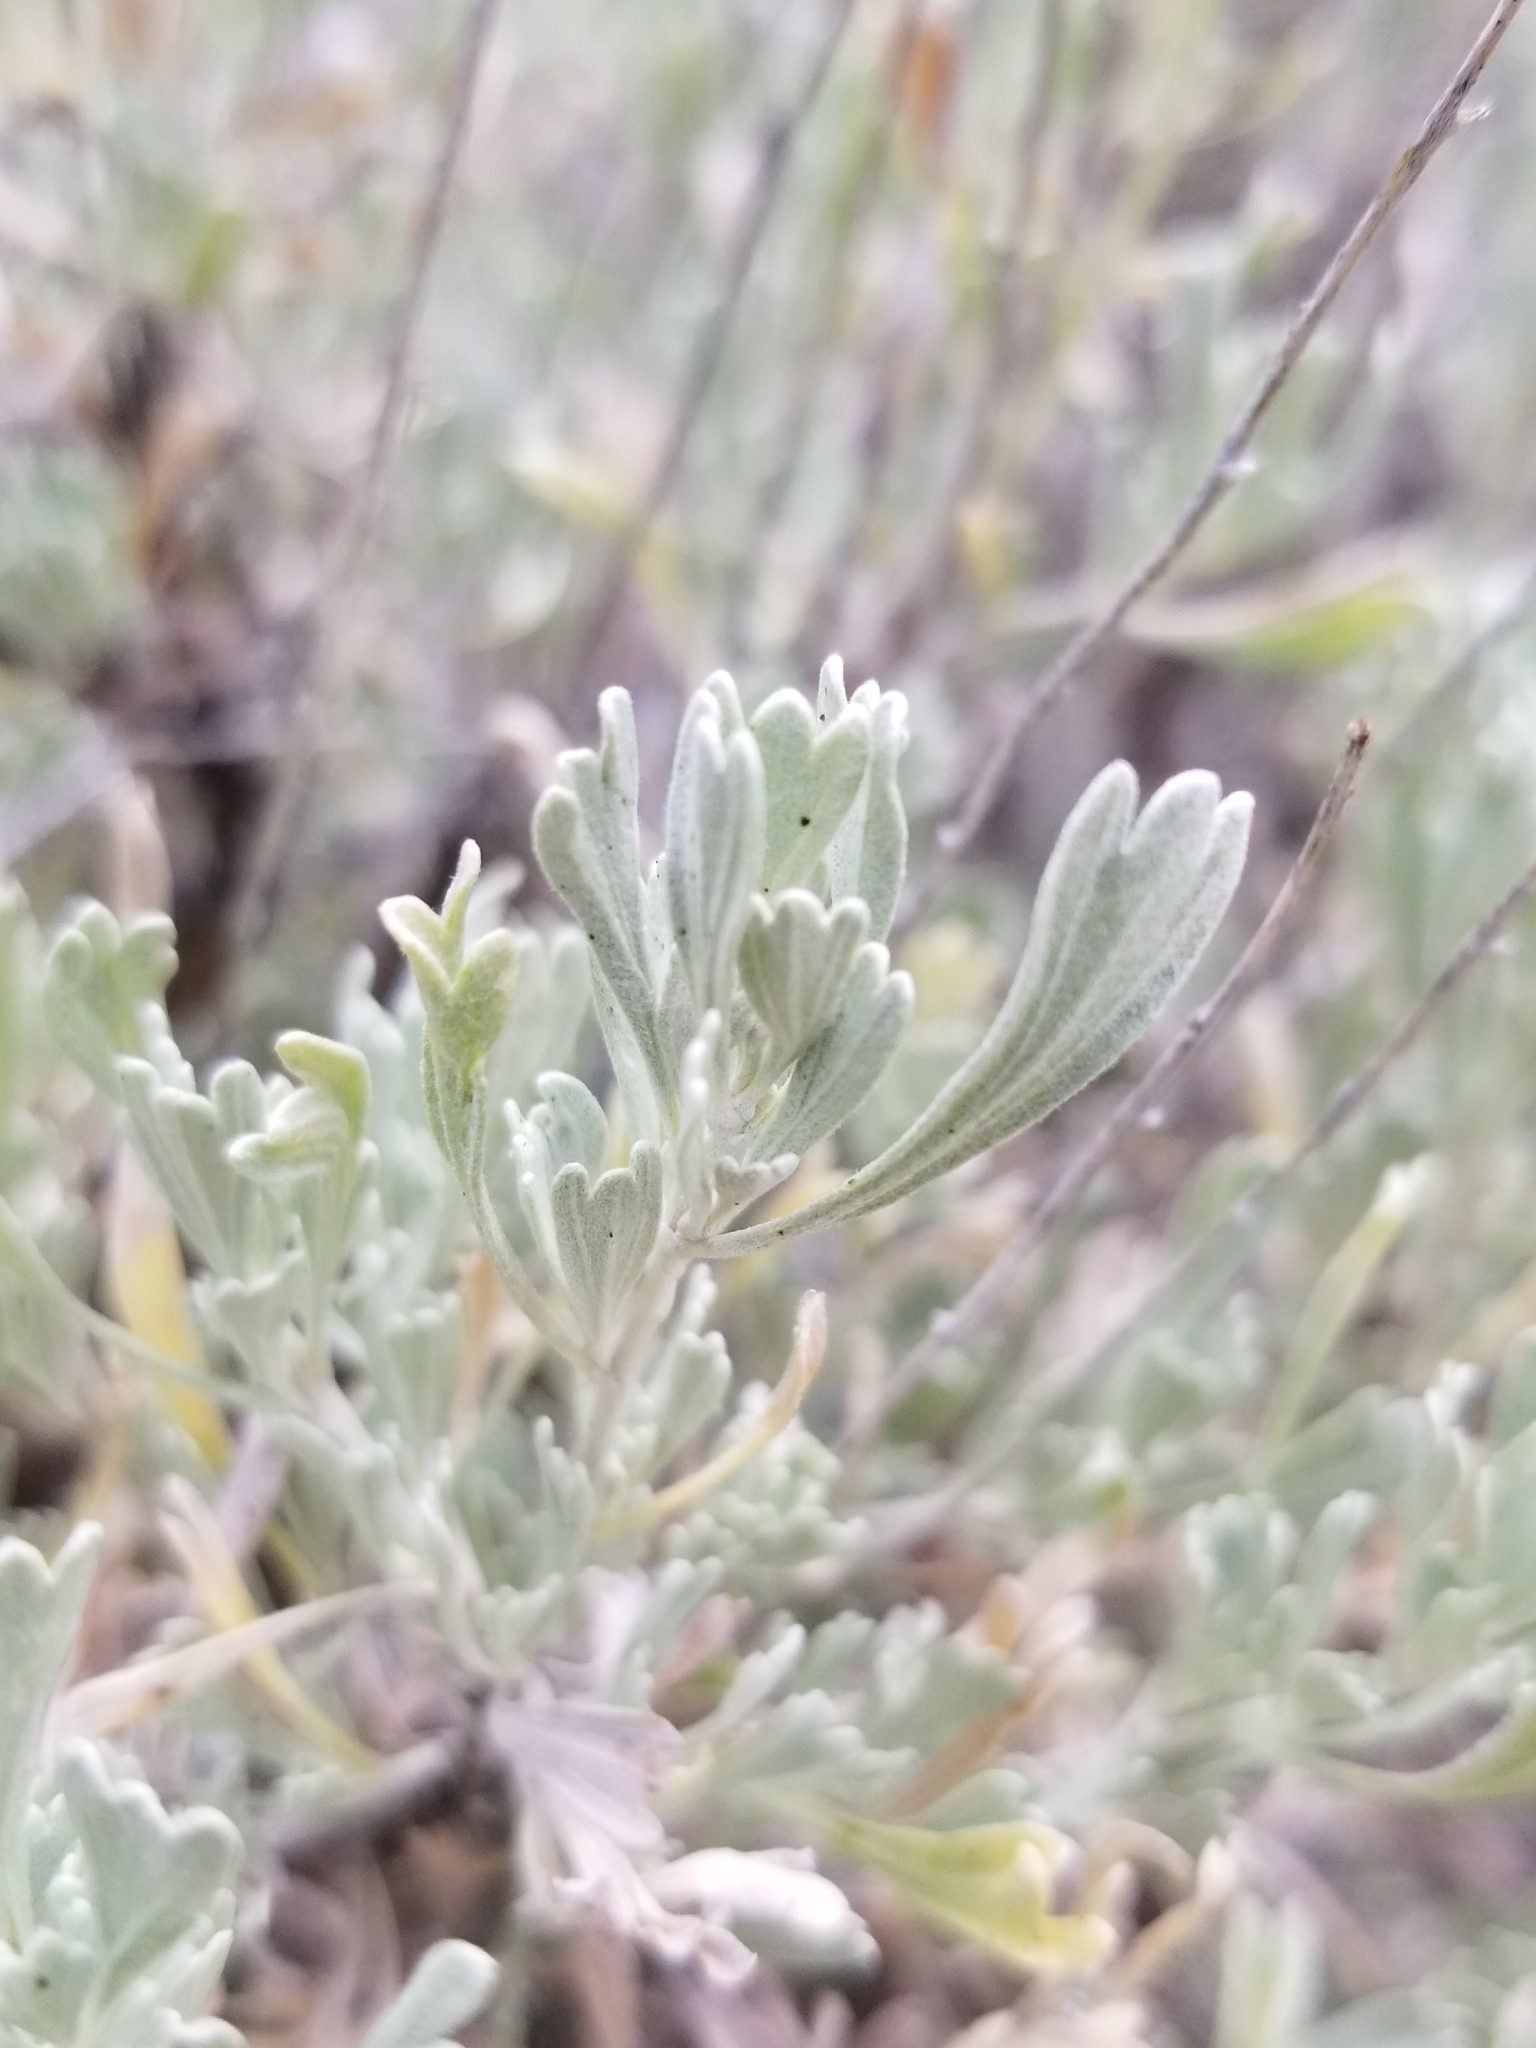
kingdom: Plantae
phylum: Tracheophyta
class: Magnoliopsida
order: Asterales
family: Asteraceae
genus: Artemisia
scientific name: Artemisia tridentata
